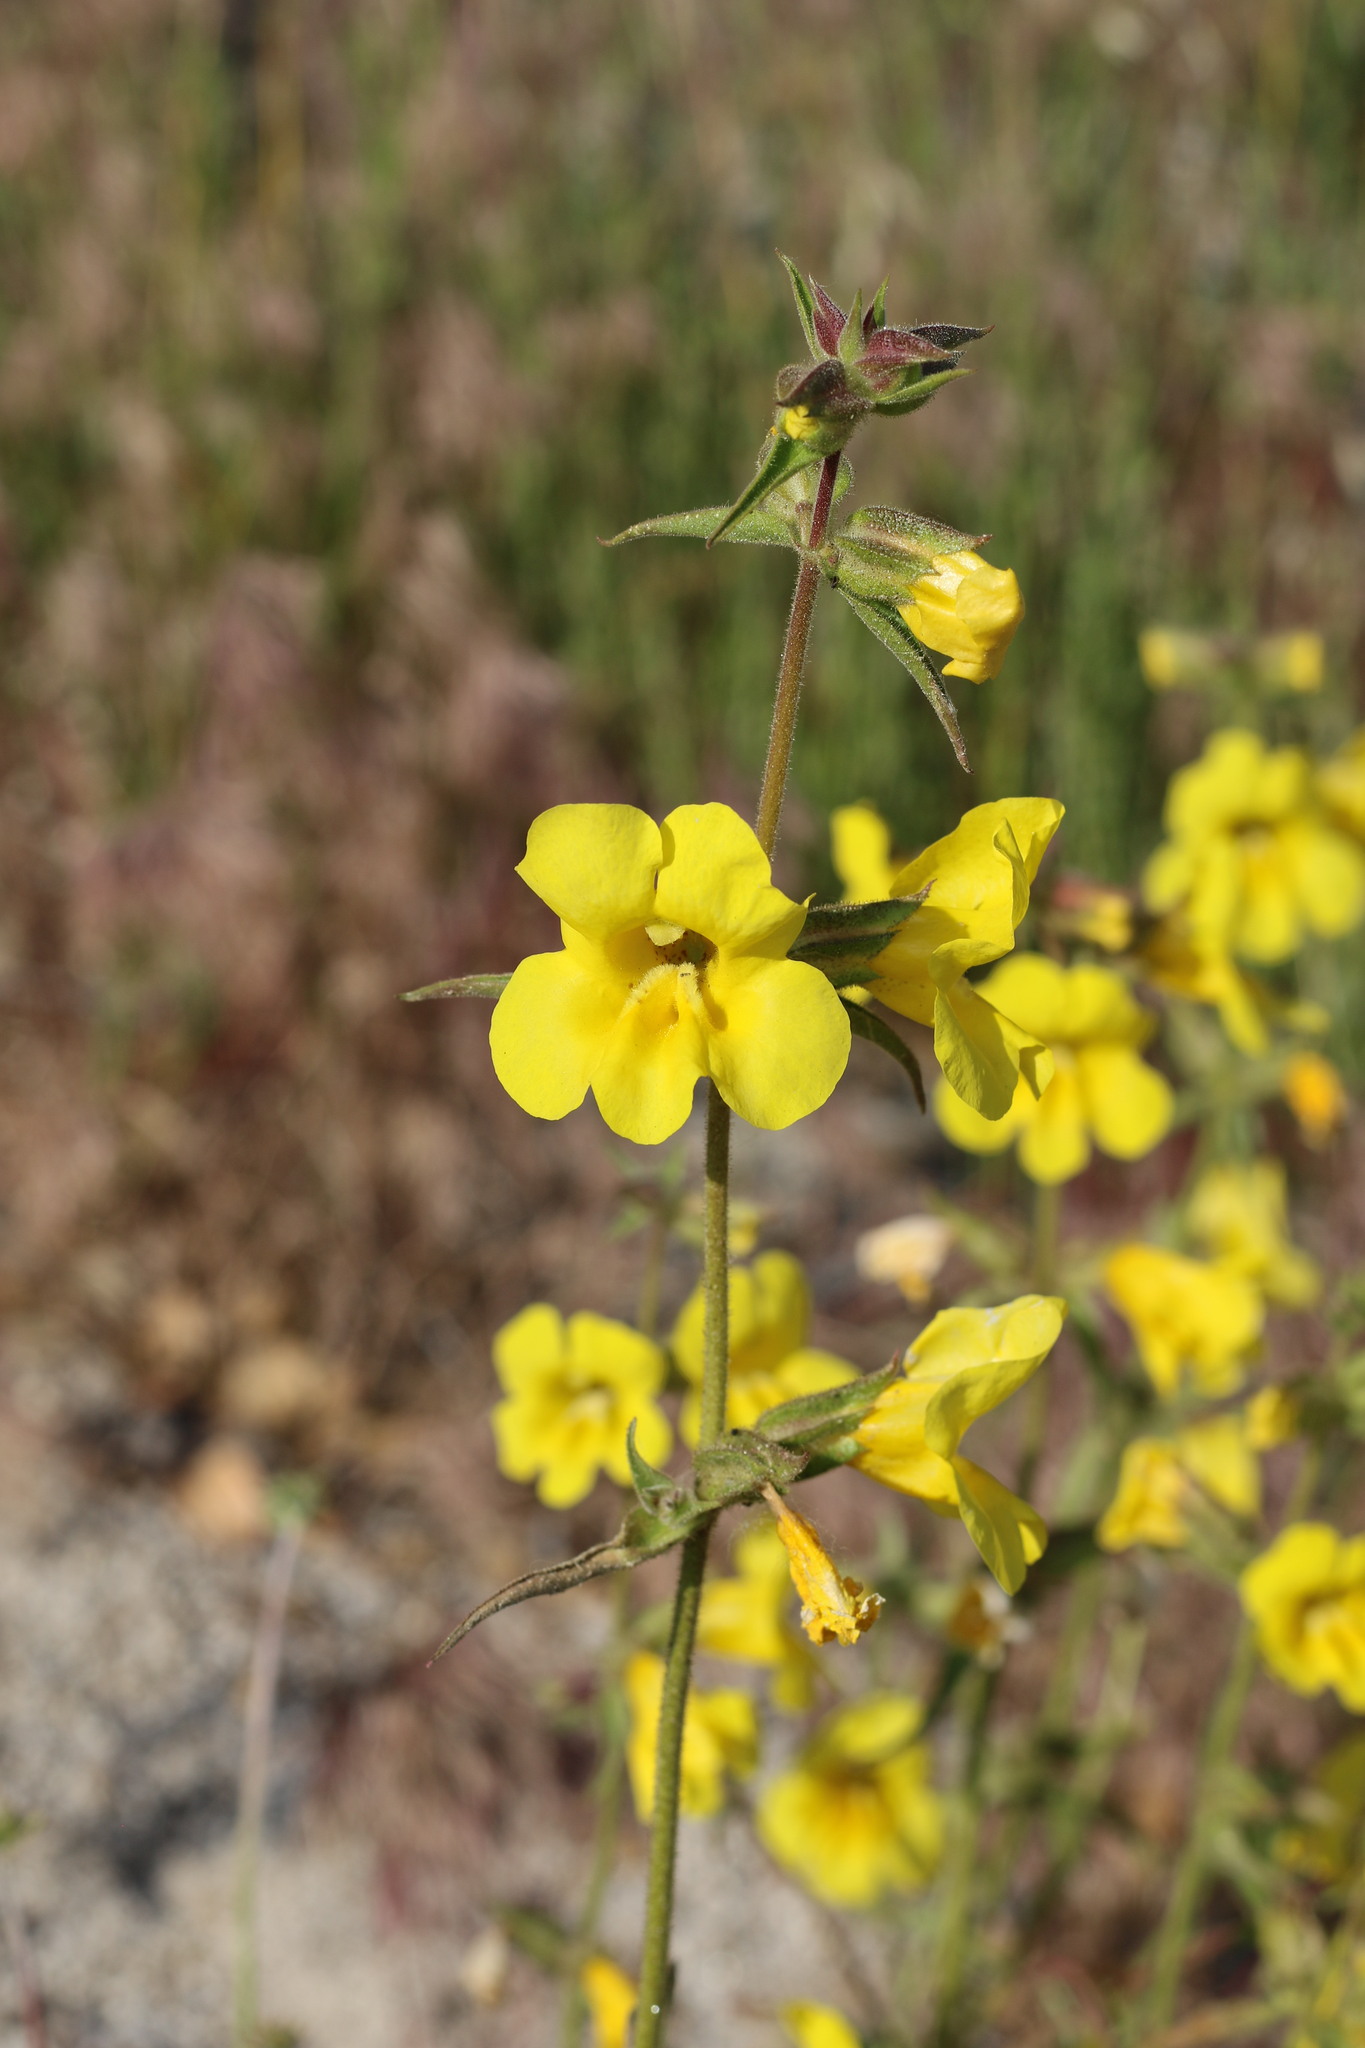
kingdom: Plantae
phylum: Tracheophyta
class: Magnoliopsida
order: Lamiales
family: Phrymaceae
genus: Diplacus
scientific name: Diplacus brevipes
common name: Wide-throat yellow monkey-flower
